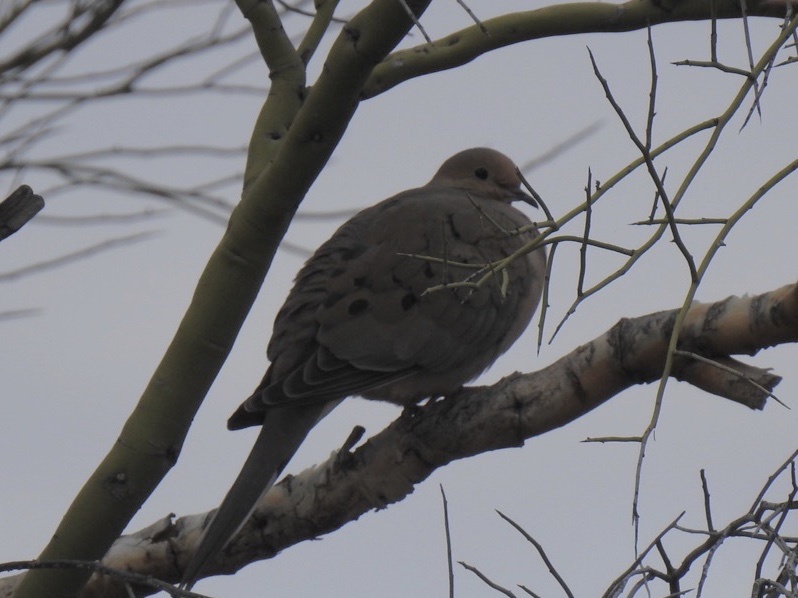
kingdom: Animalia
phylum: Chordata
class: Aves
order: Columbiformes
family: Columbidae
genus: Zenaida
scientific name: Zenaida macroura
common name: Mourning dove
